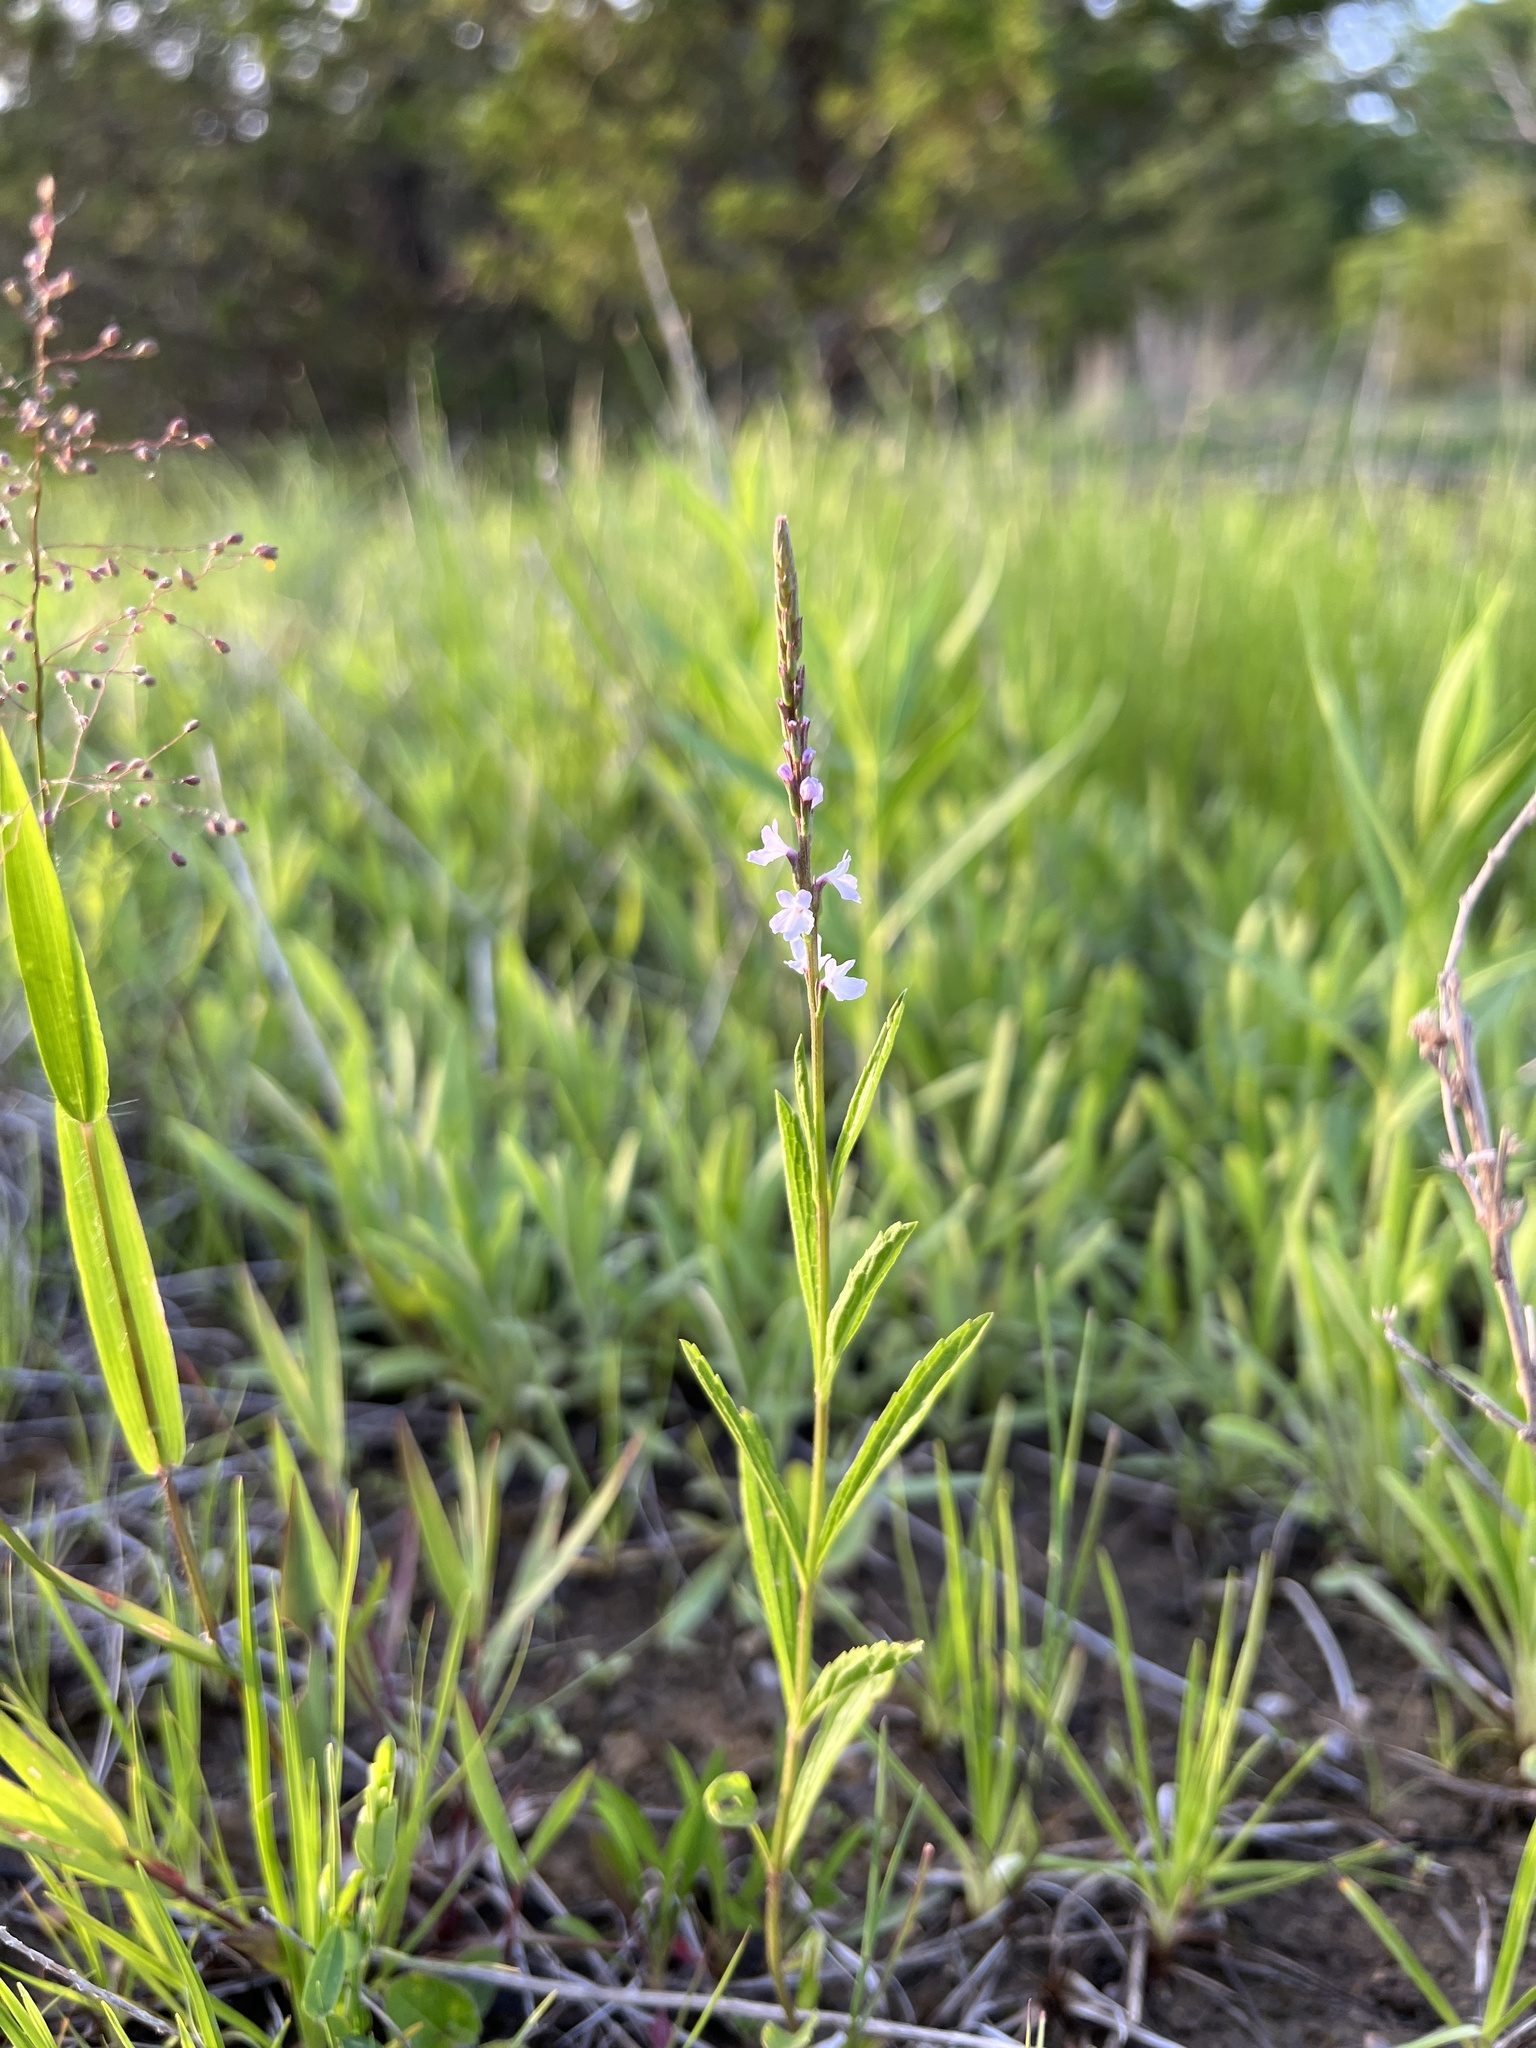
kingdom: Plantae
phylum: Tracheophyta
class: Magnoliopsida
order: Lamiales
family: Verbenaceae
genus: Verbena
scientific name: Verbena simplex
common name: Narrow-leaf vervain
